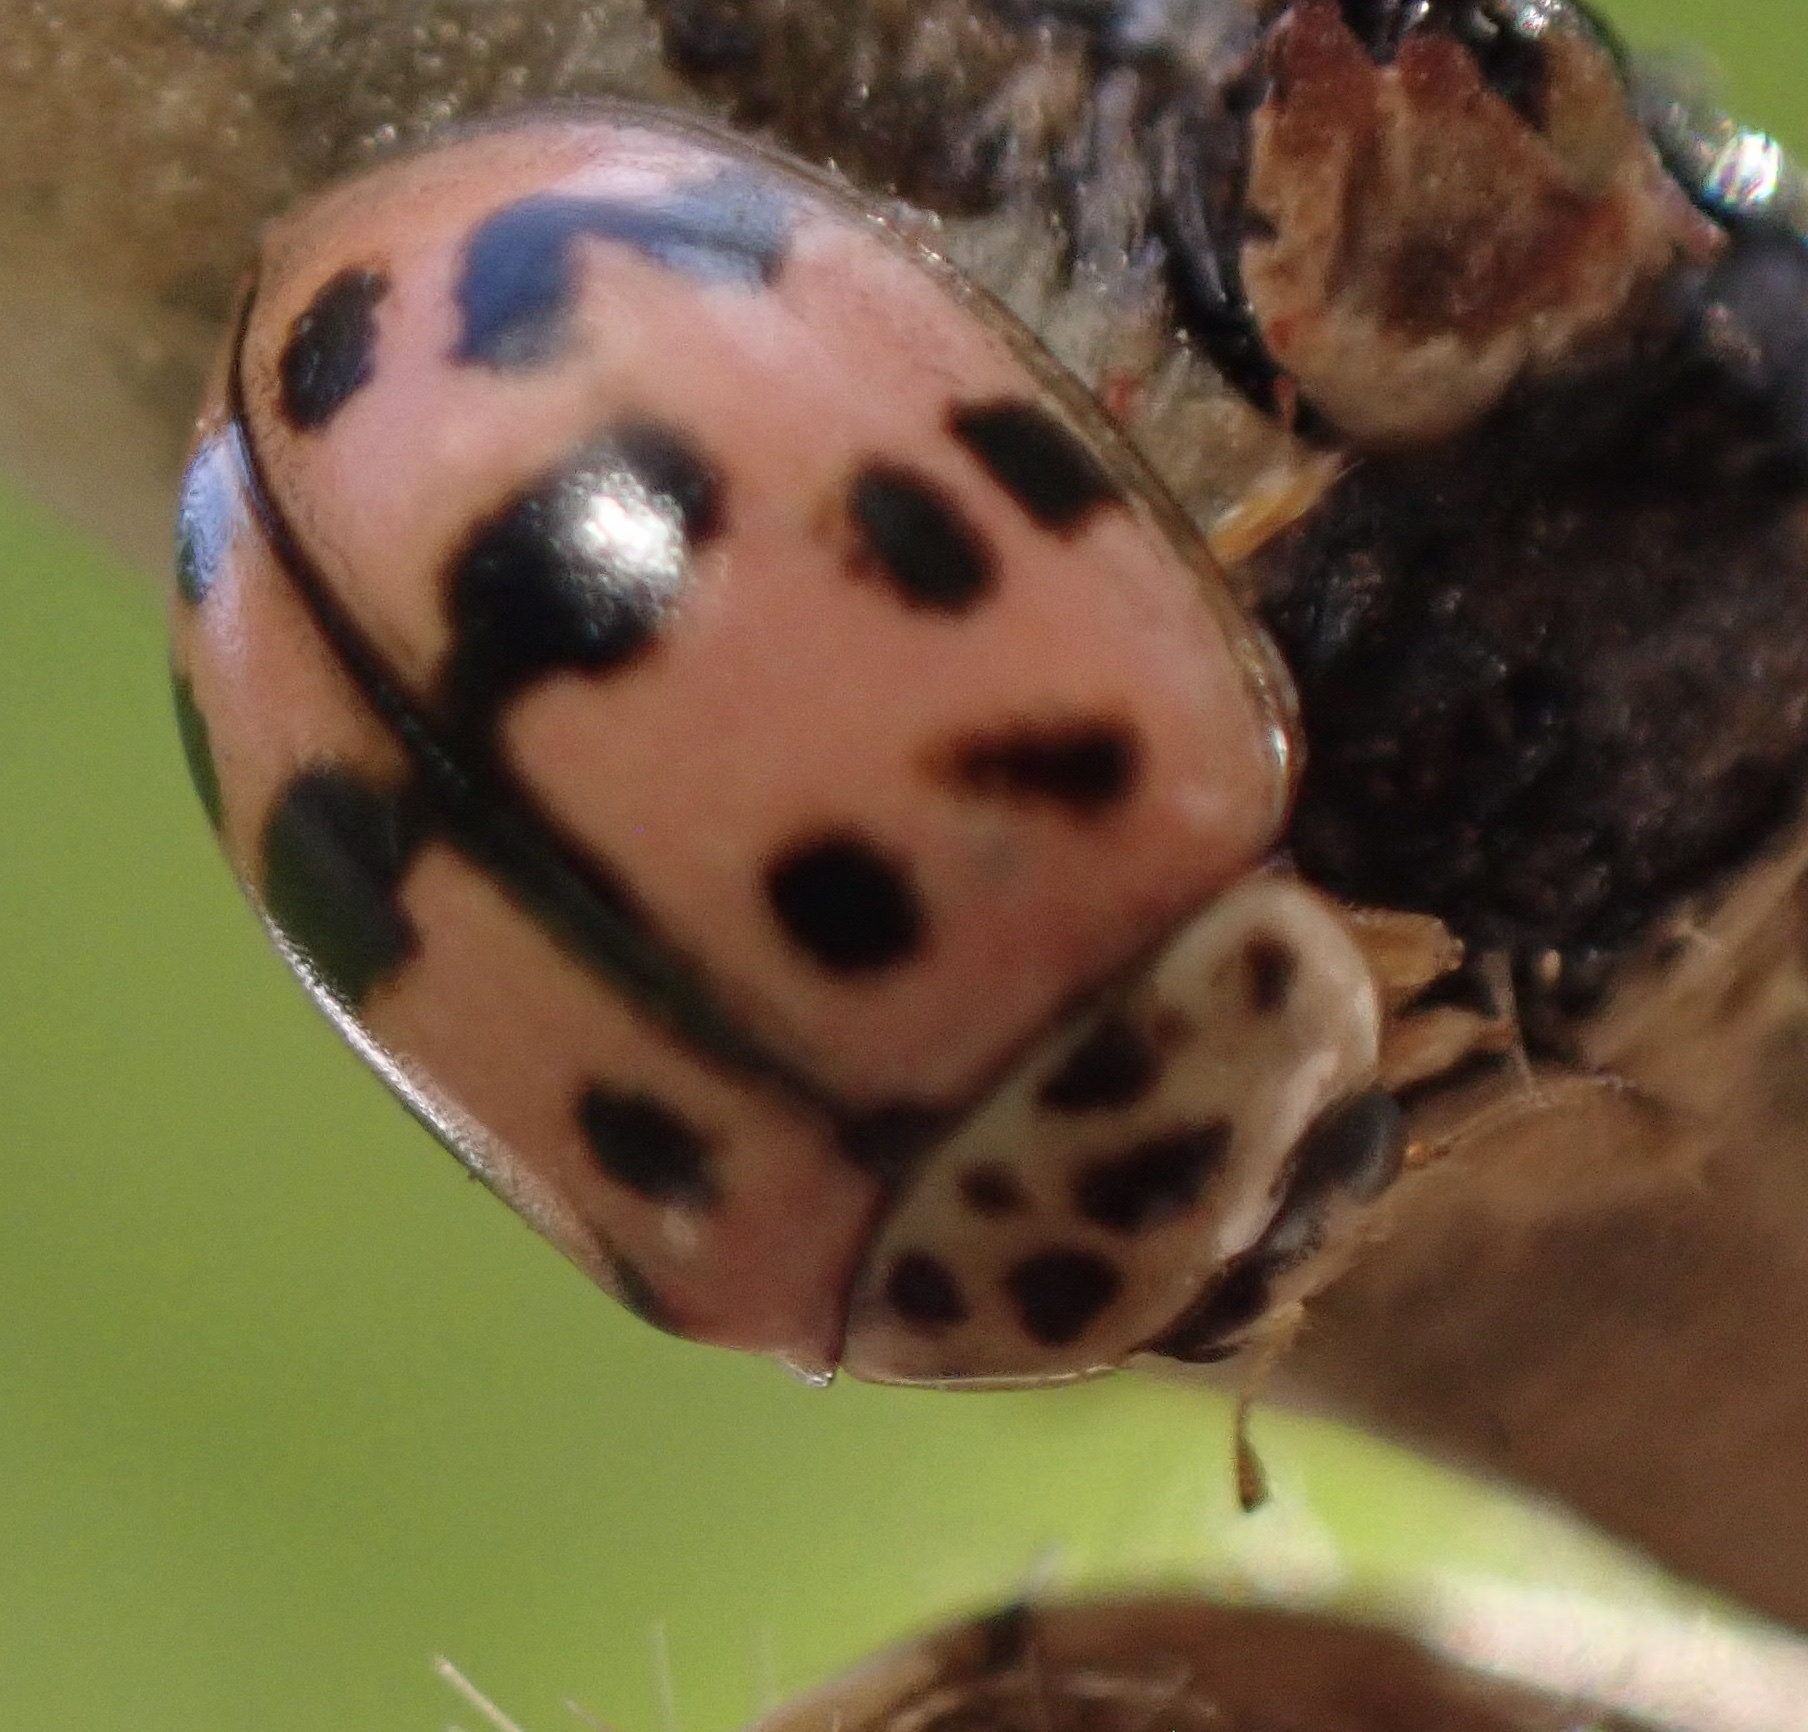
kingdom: Animalia
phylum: Arthropoda
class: Insecta
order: Coleoptera
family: Coccinellidae
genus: Oenopia
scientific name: Oenopia conglobata
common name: Ladybird beetle
